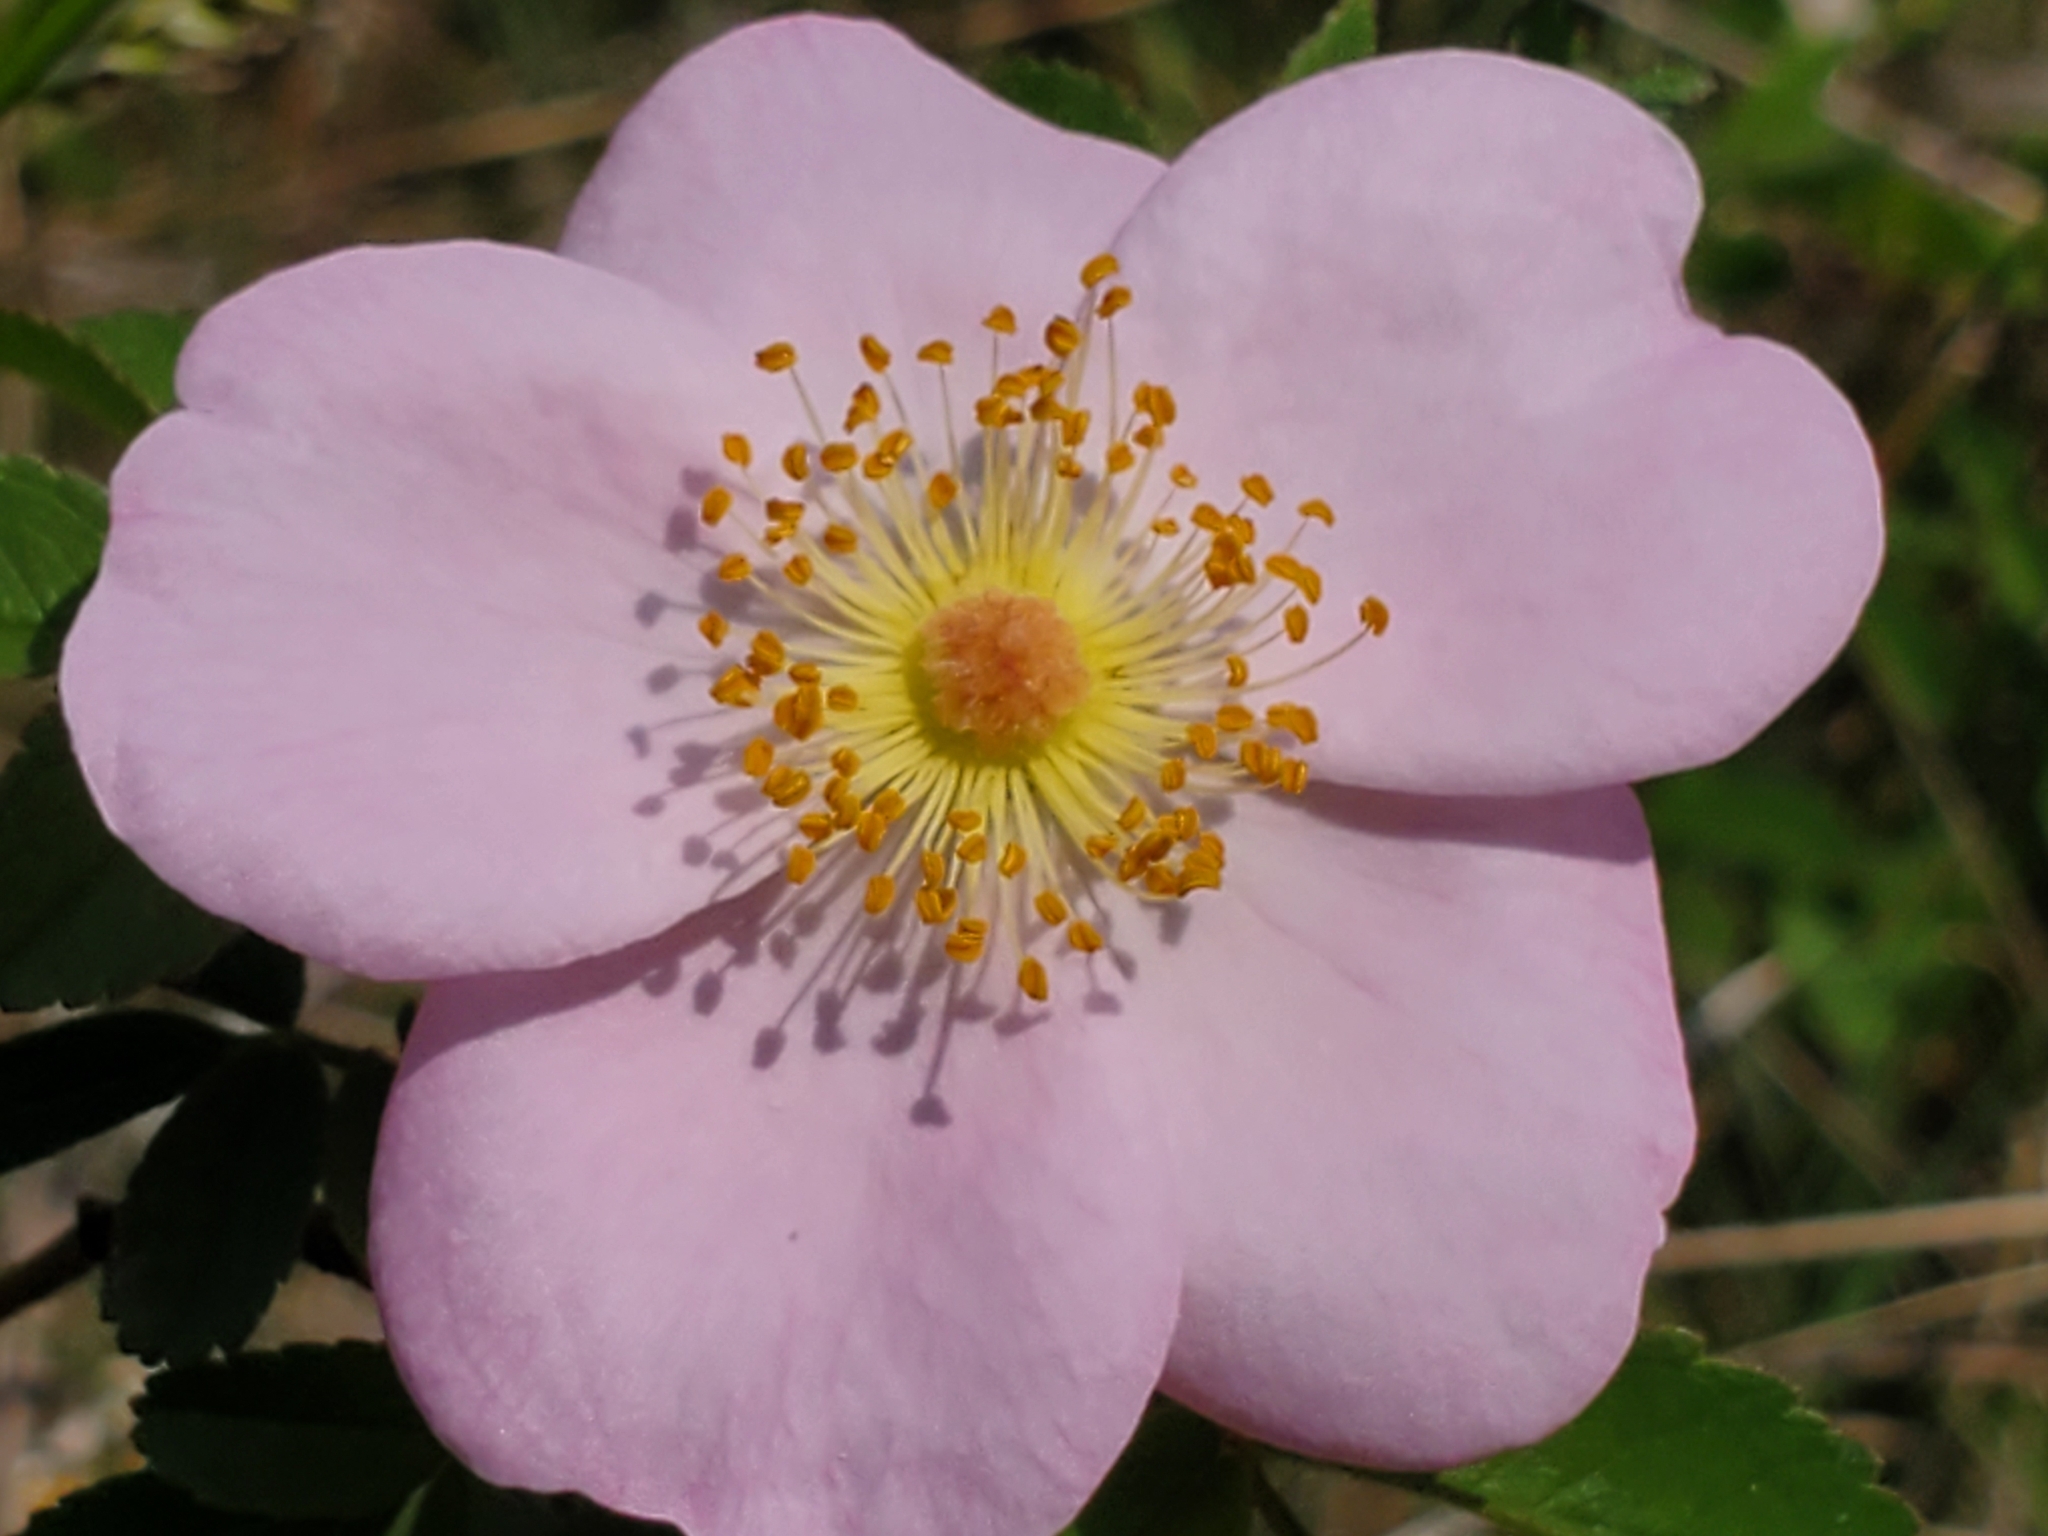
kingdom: Plantae
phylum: Tracheophyta
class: Magnoliopsida
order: Rosales
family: Rosaceae
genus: Rosa
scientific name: Rosa carolina
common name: Pasture rose
